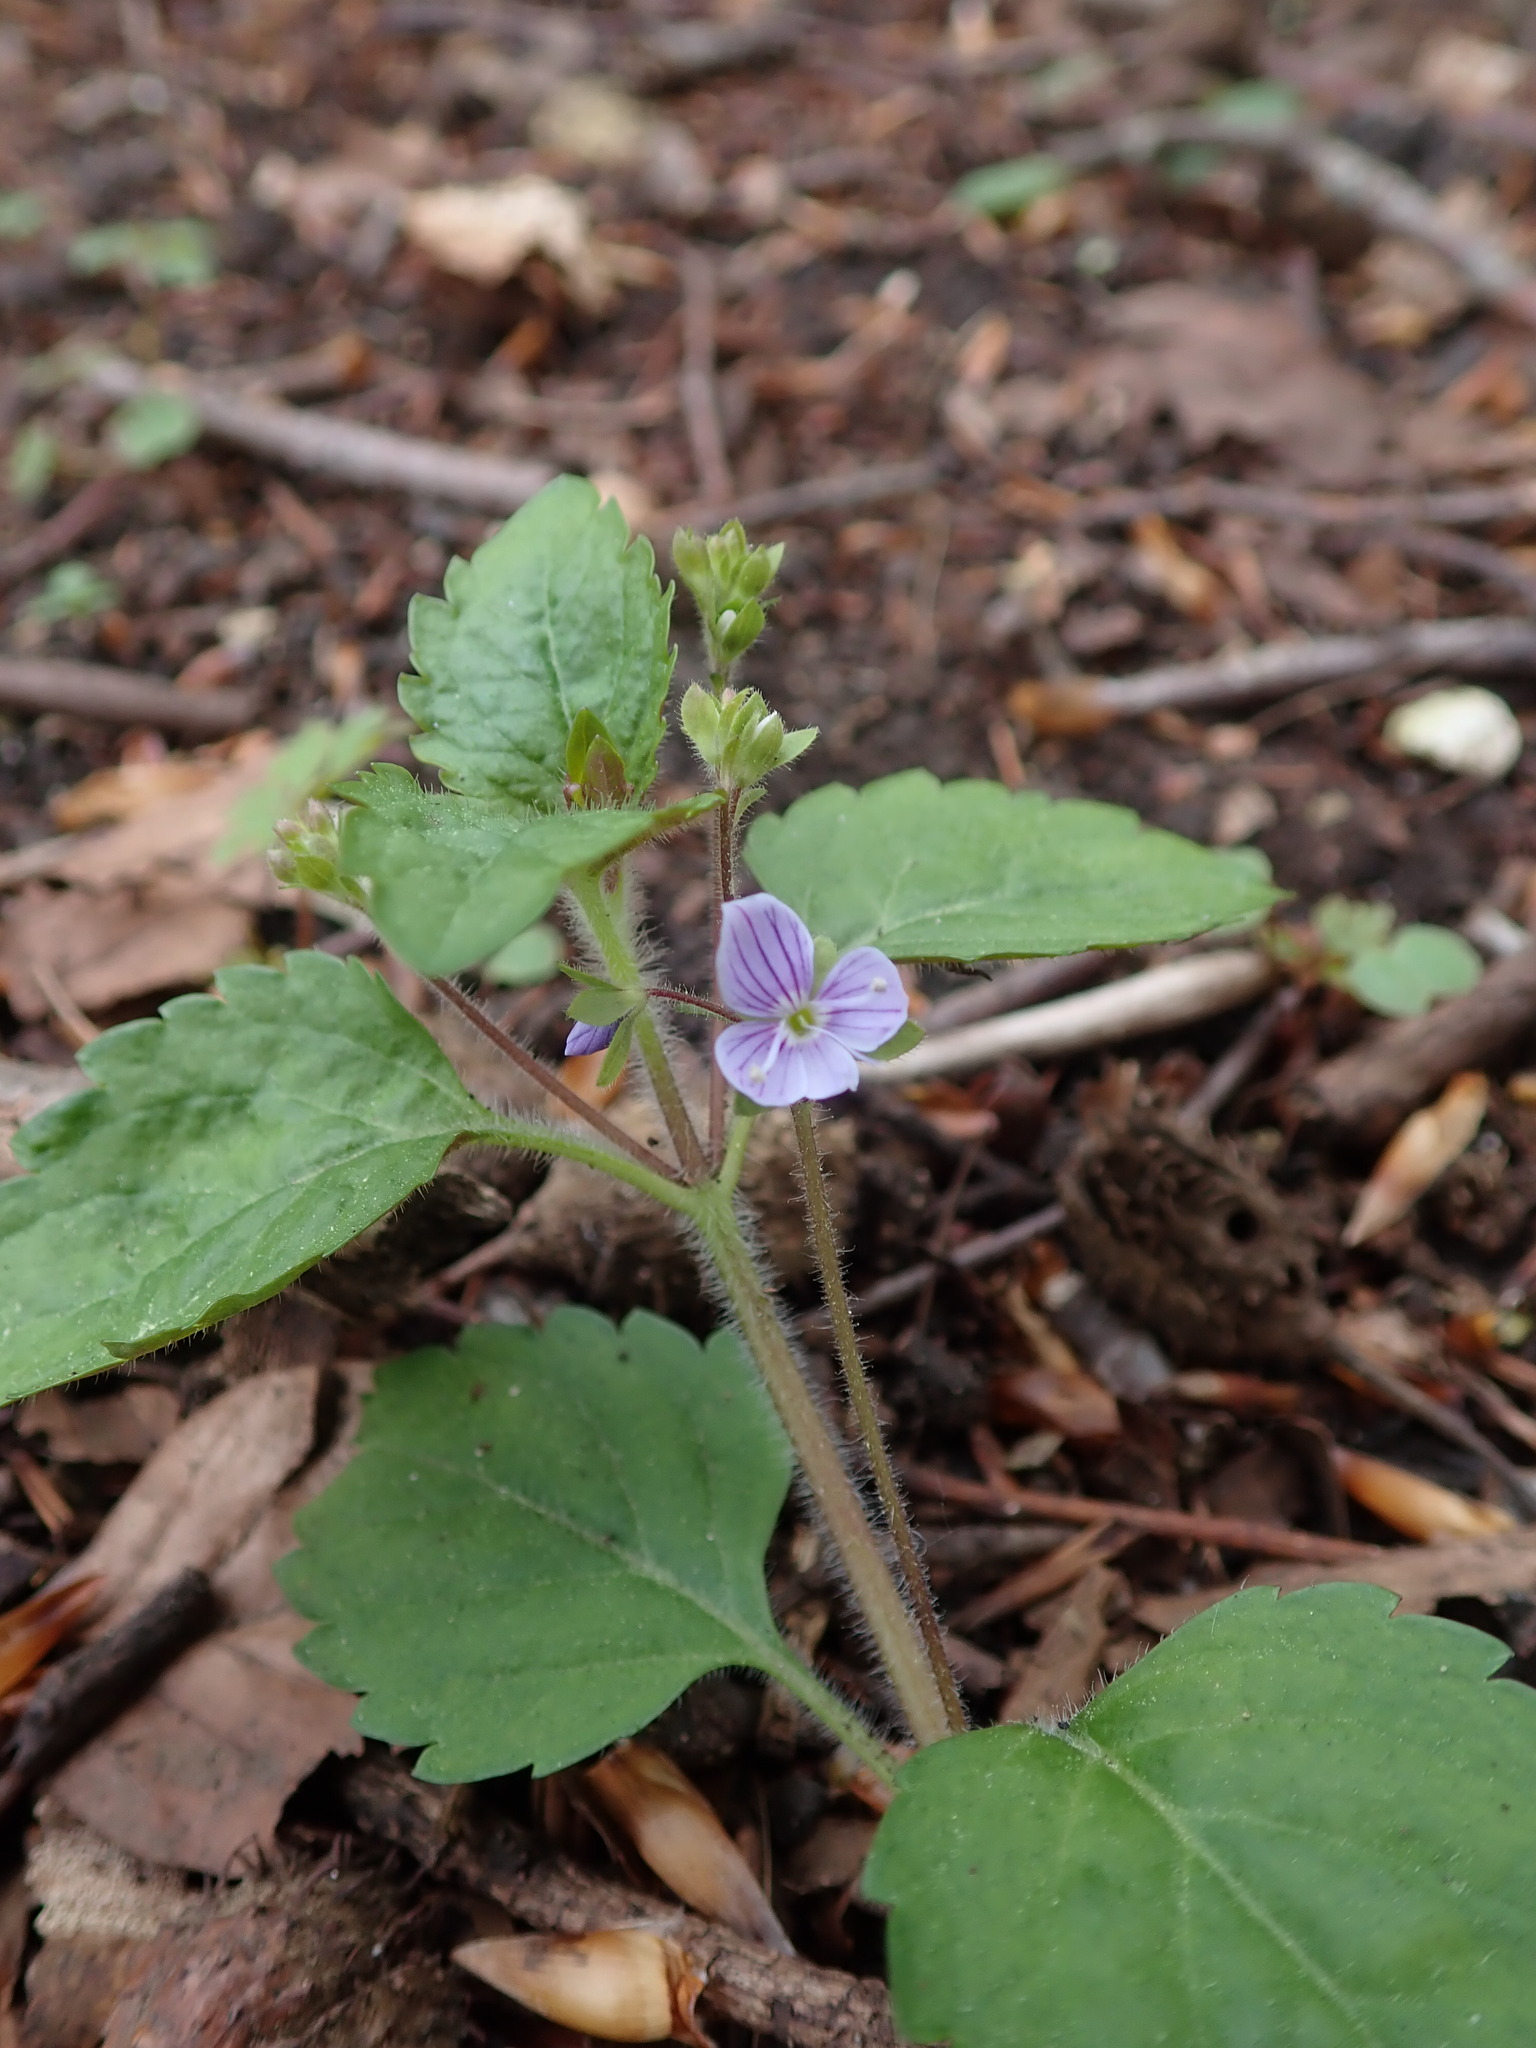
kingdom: Plantae
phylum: Tracheophyta
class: Magnoliopsida
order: Lamiales
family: Plantaginaceae
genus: Veronica
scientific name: Veronica montana
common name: Wood speedwell
